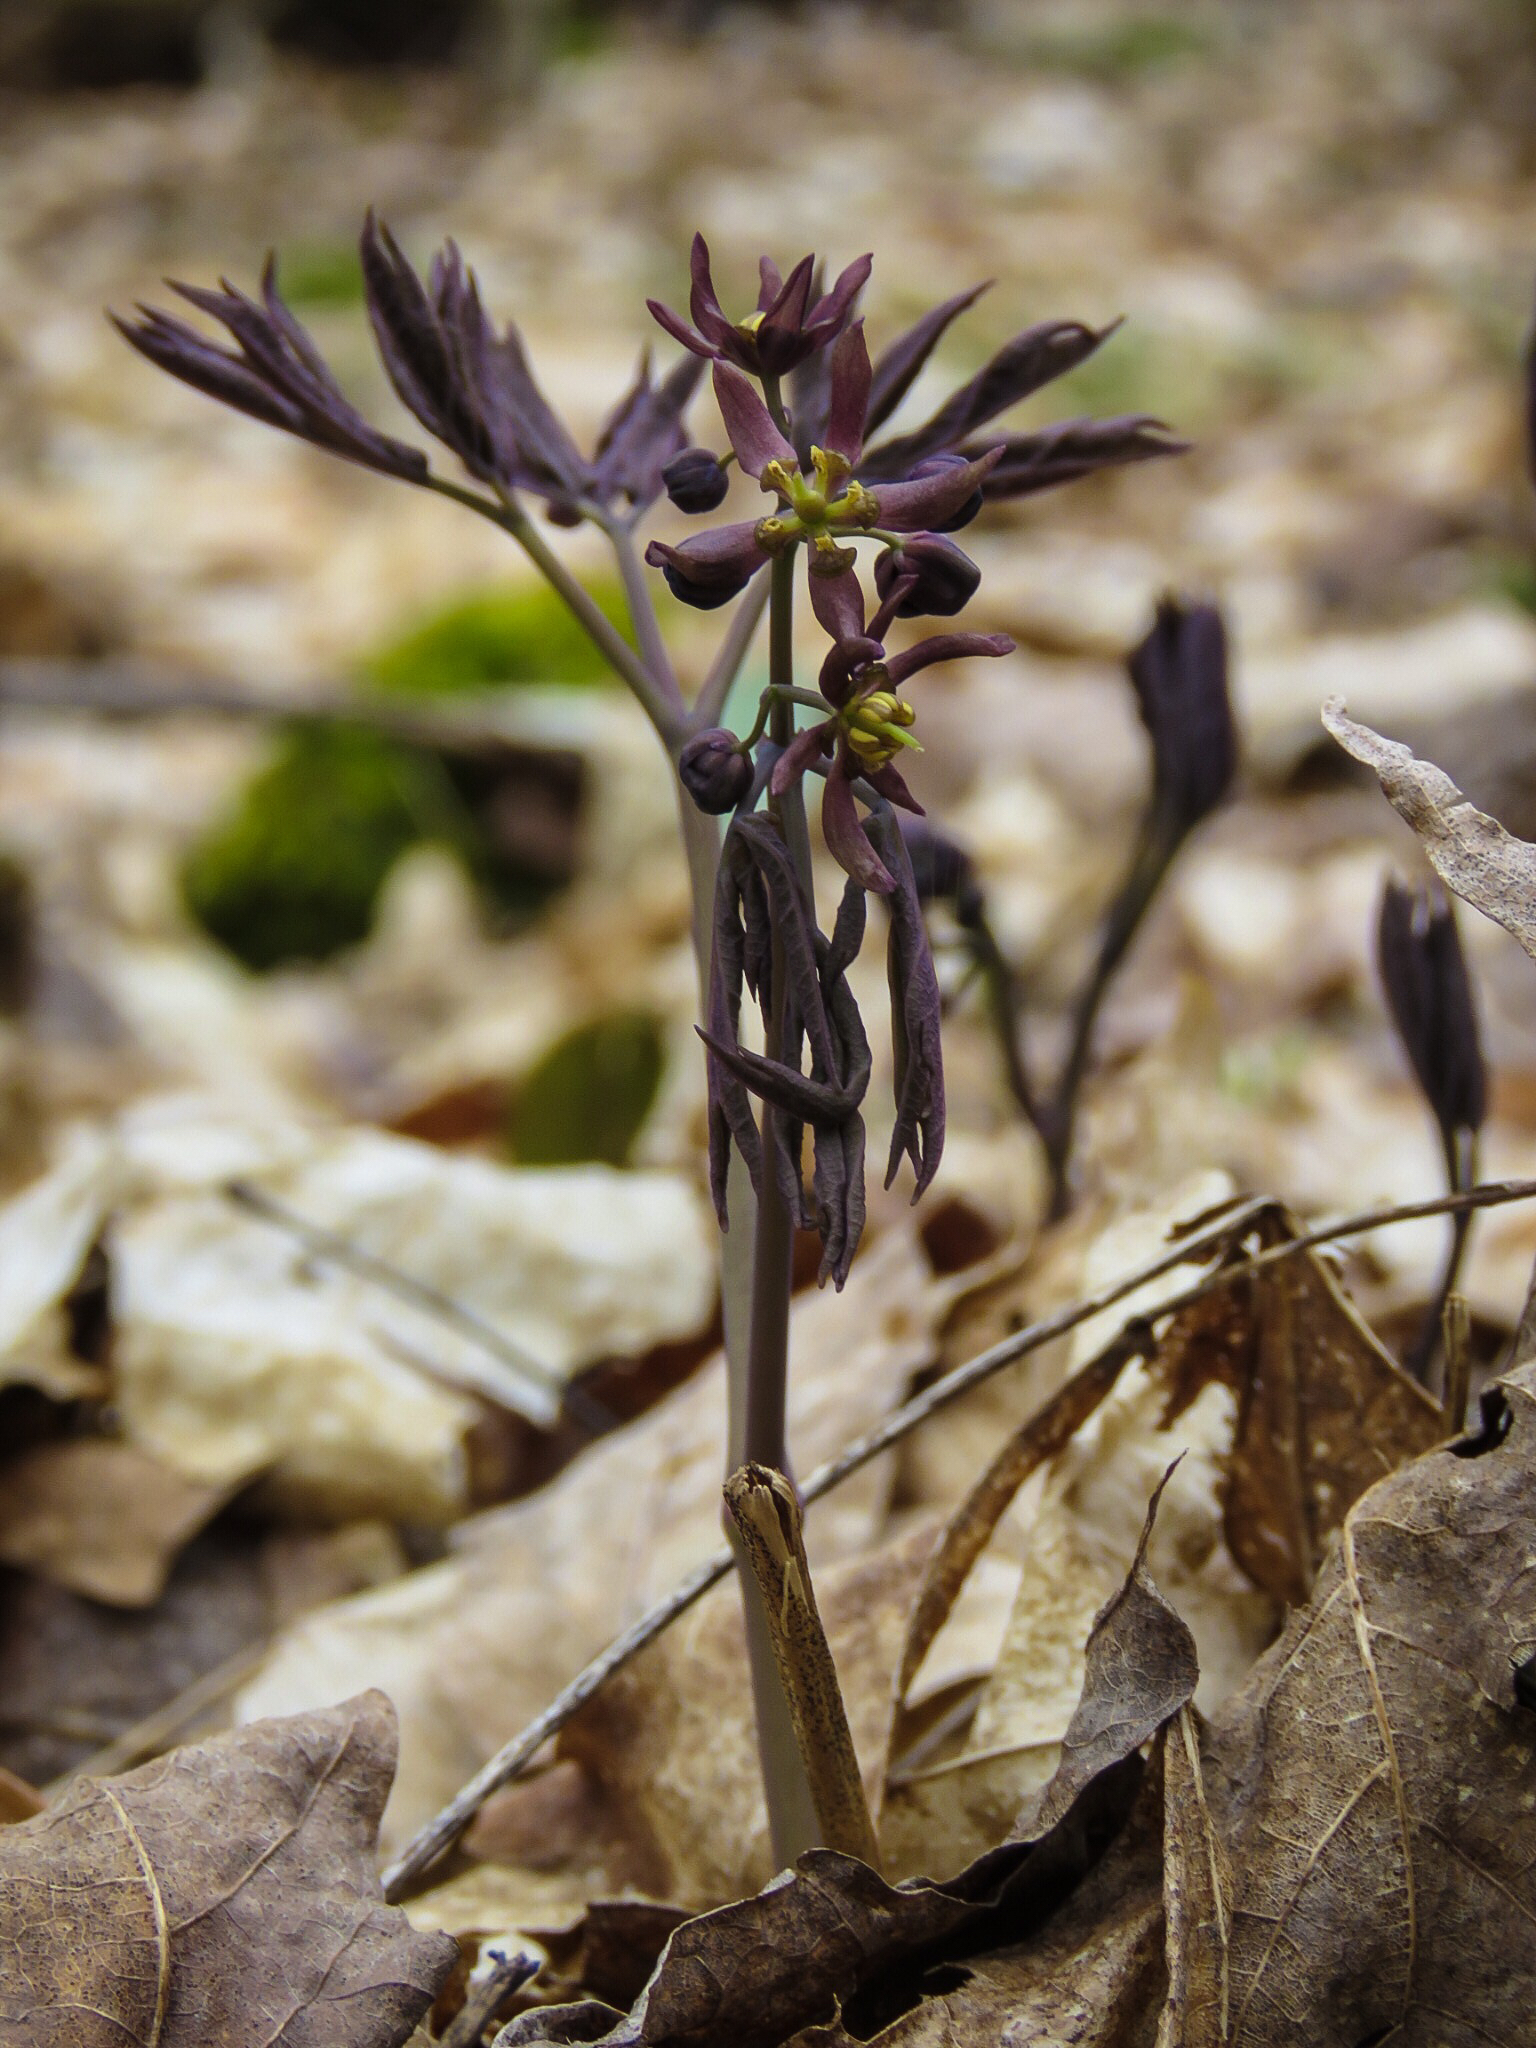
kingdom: Plantae
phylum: Tracheophyta
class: Magnoliopsida
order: Ranunculales
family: Berberidaceae
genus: Caulophyllum
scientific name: Caulophyllum giganteum
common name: Blue cohosh
